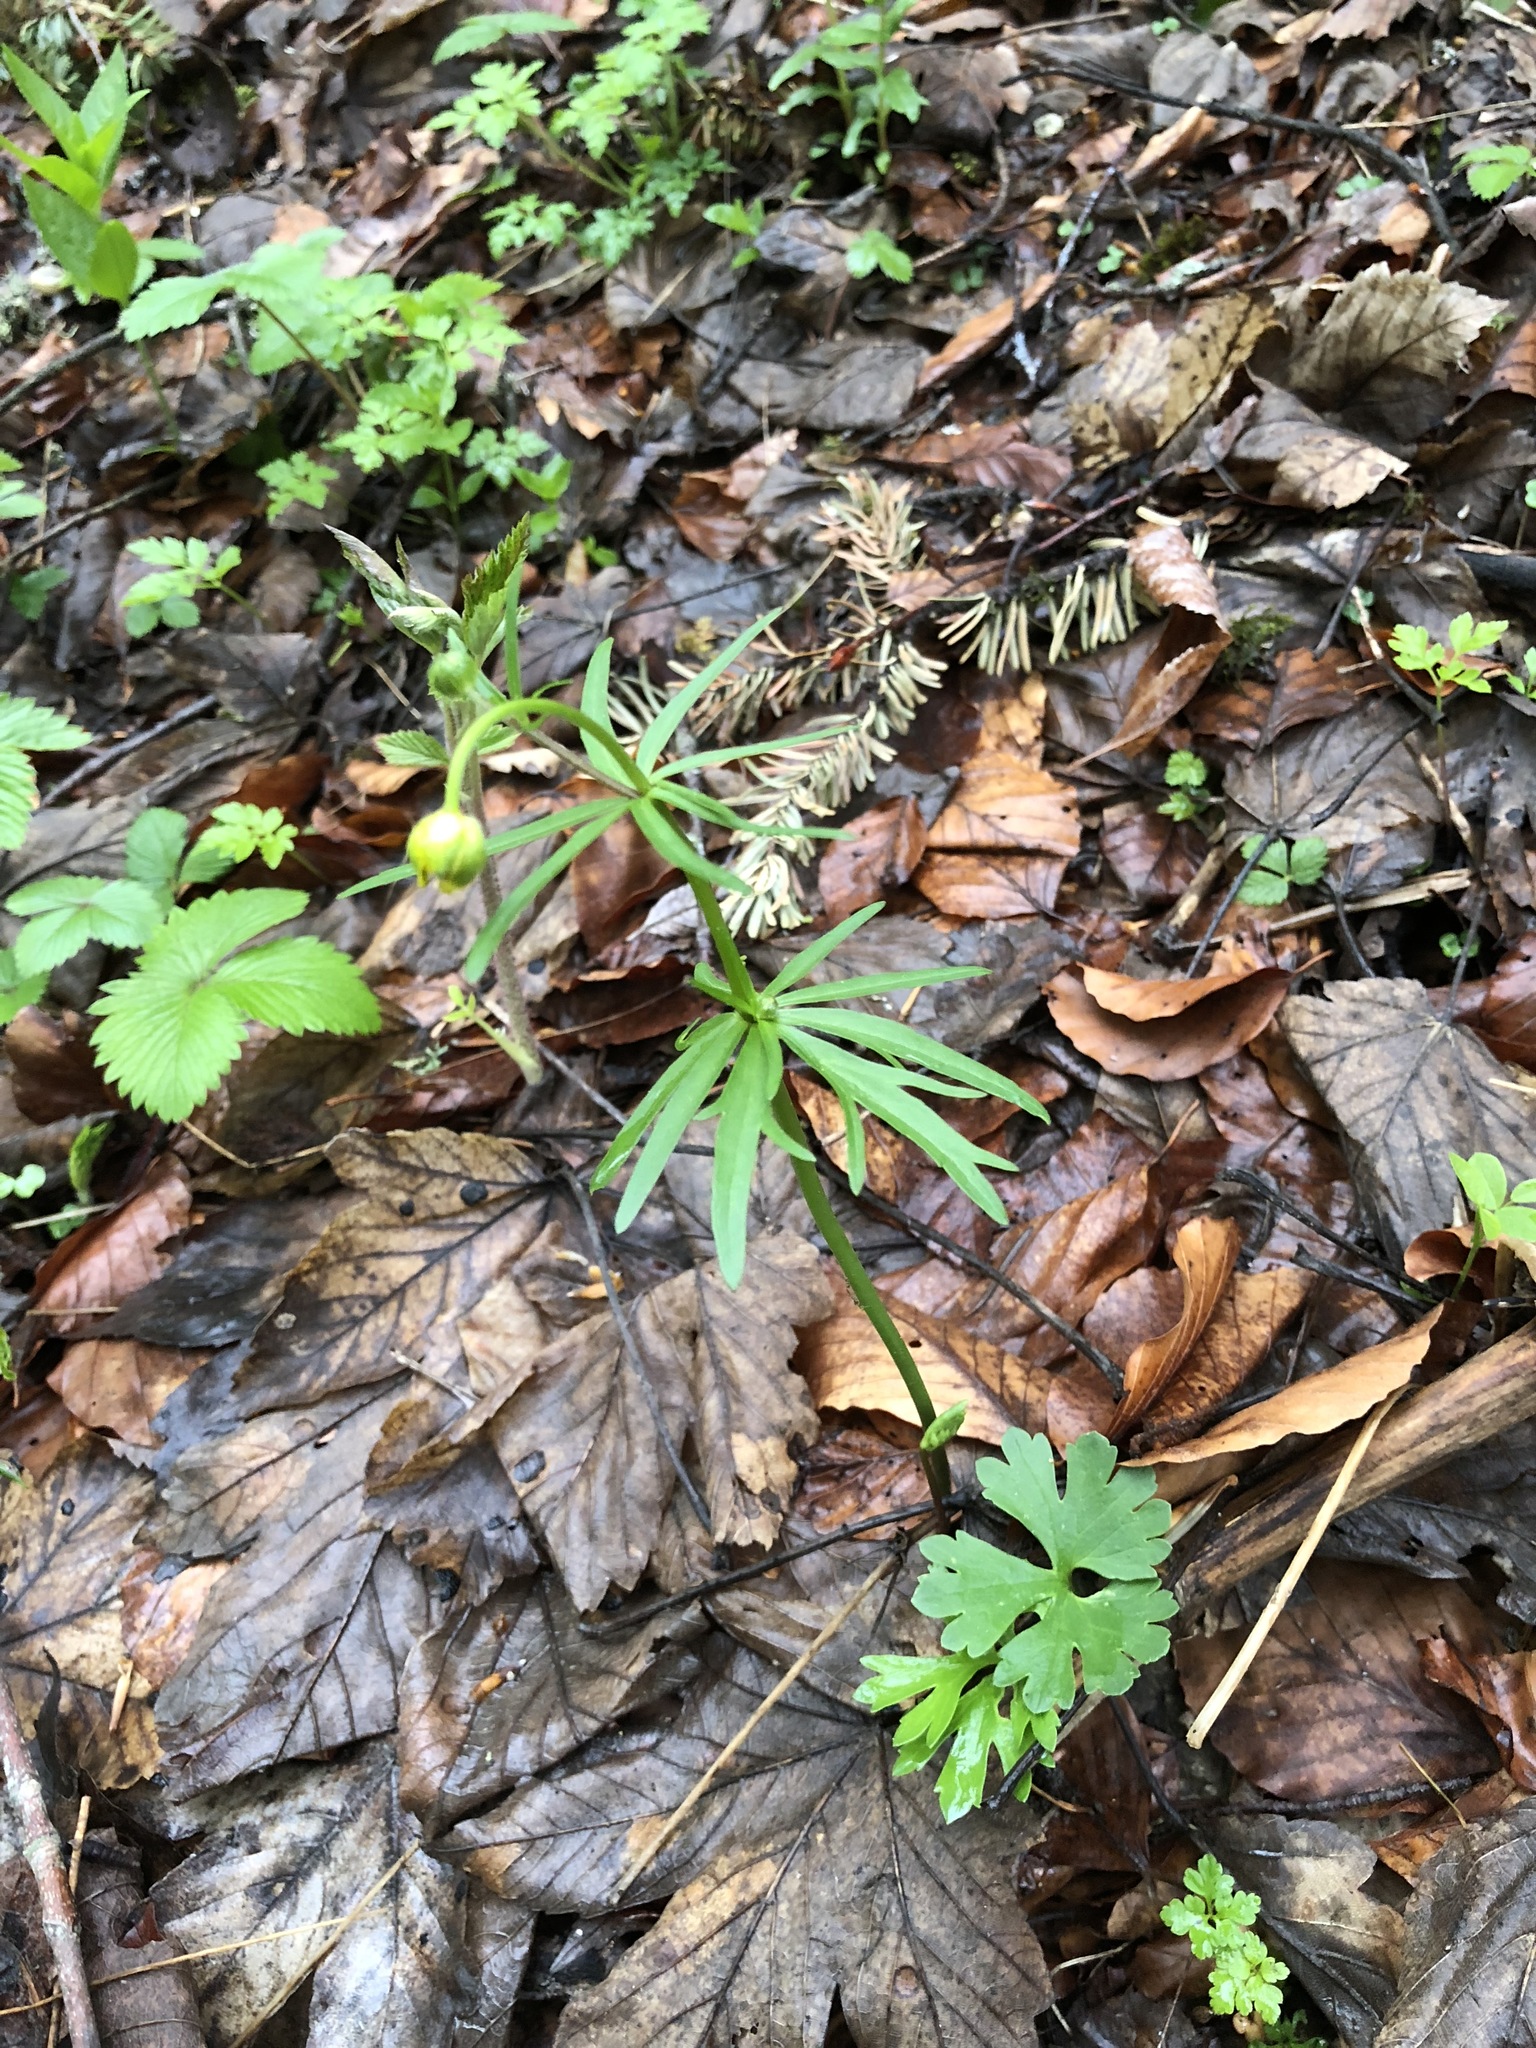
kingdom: Plantae
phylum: Tracheophyta
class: Magnoliopsida
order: Ranunculales
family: Ranunculaceae
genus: Ranunculus
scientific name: Ranunculus auricomus
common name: Goldilocks buttercup
